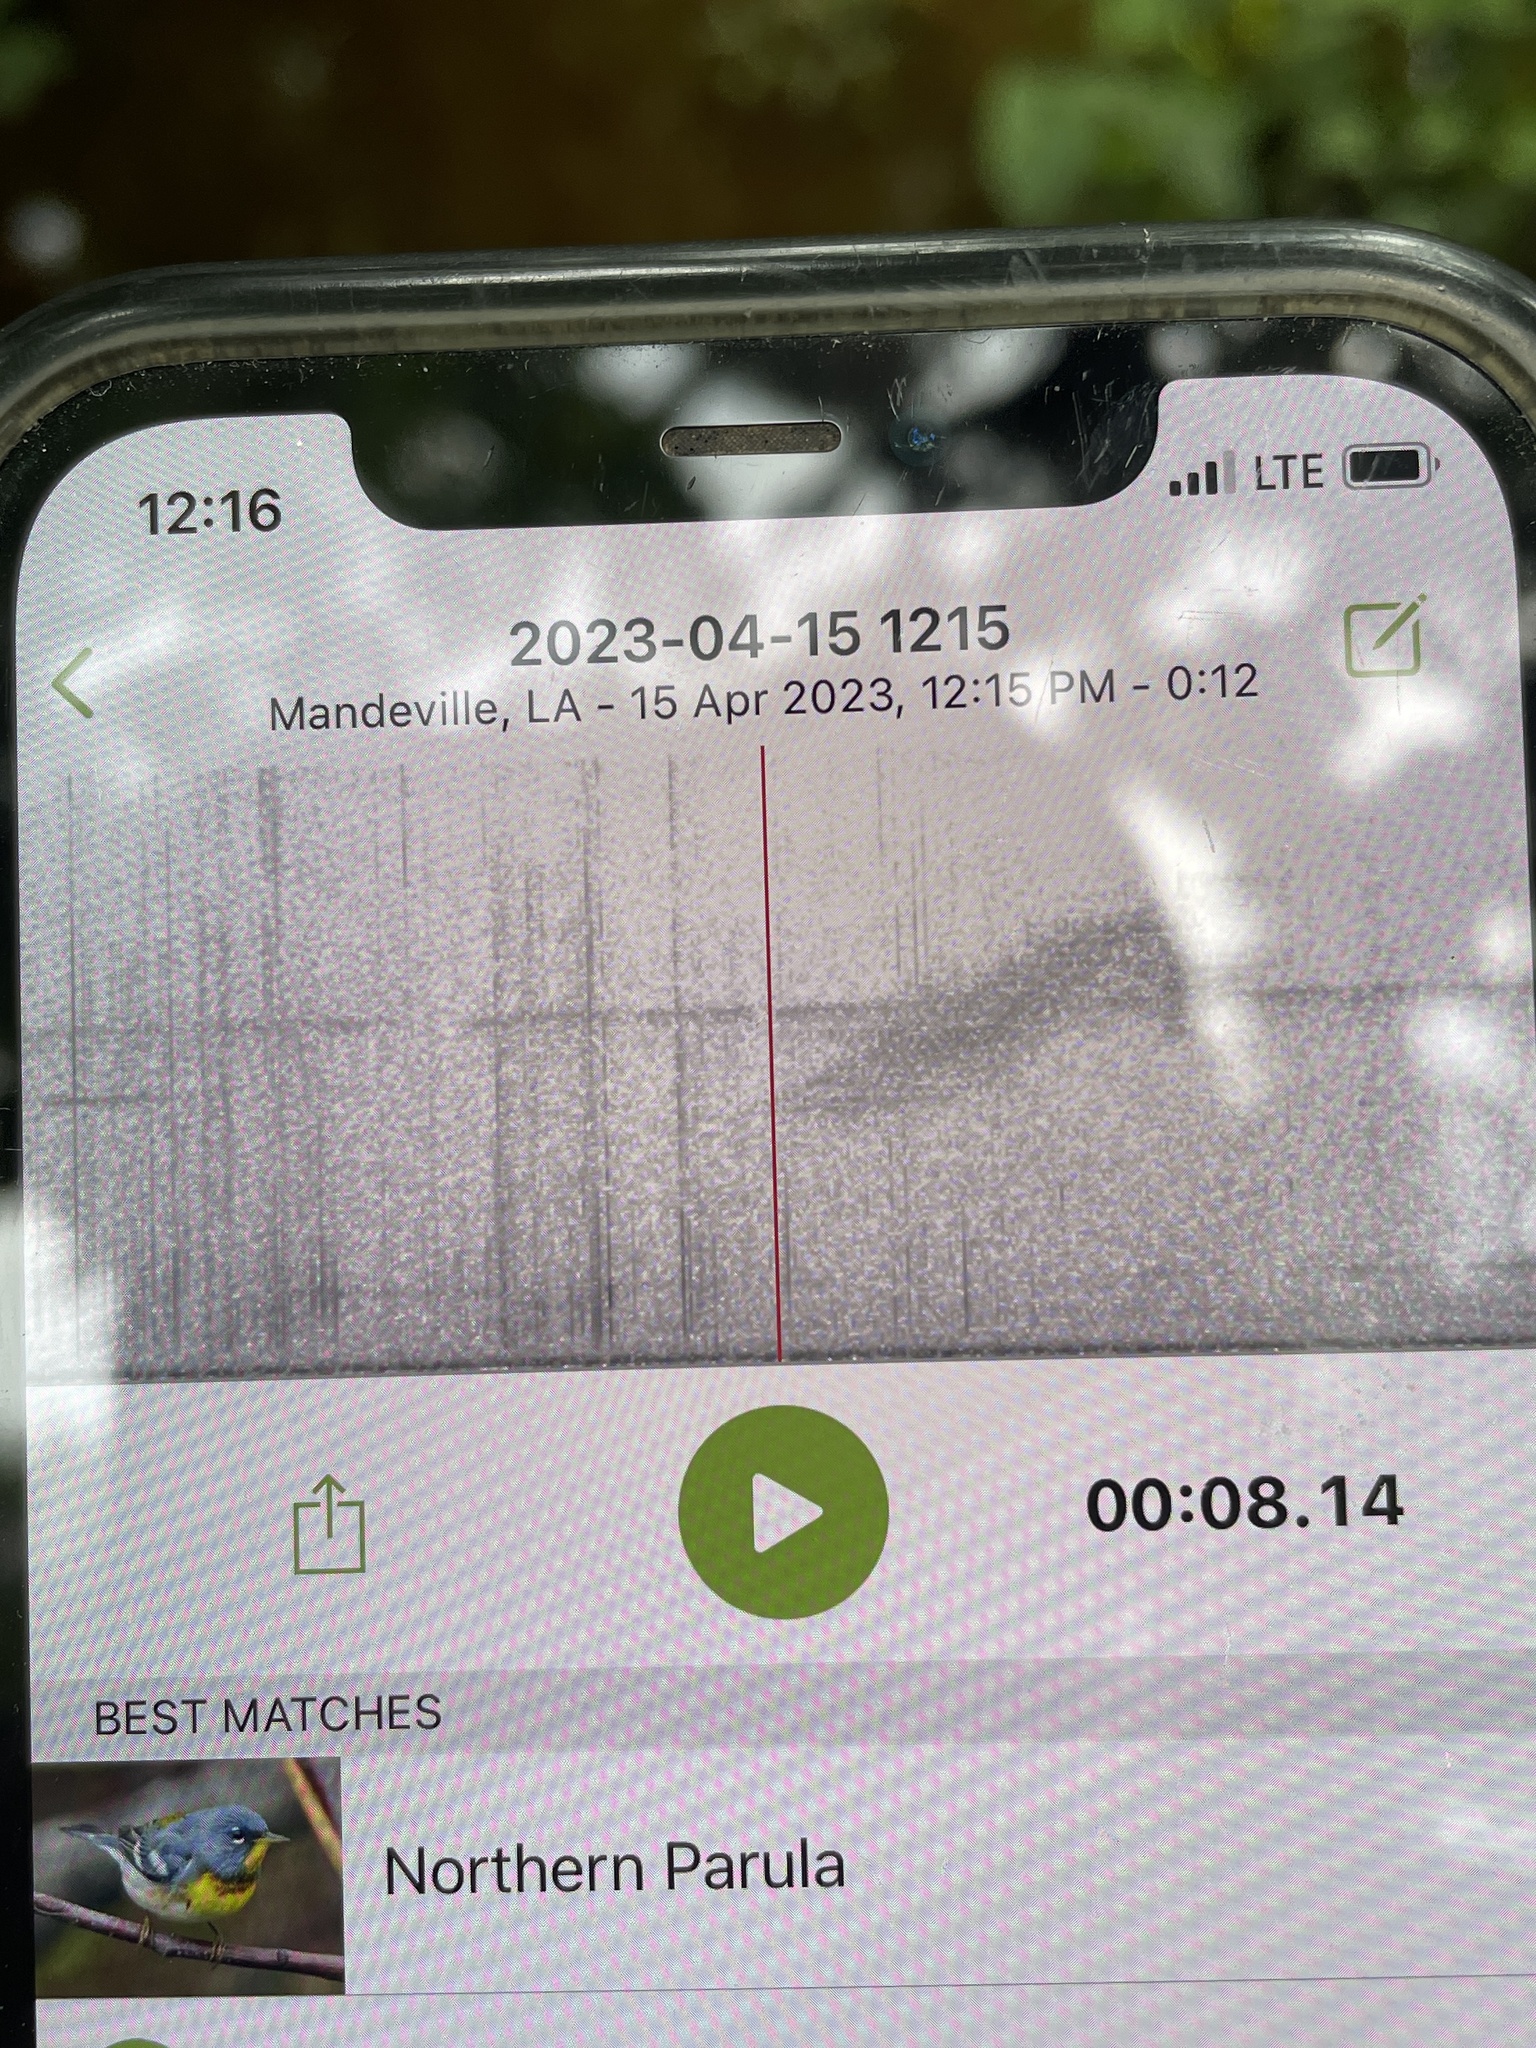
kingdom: Animalia
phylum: Chordata
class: Aves
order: Passeriformes
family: Parulidae
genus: Setophaga
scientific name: Setophaga americana
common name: Northern parula
